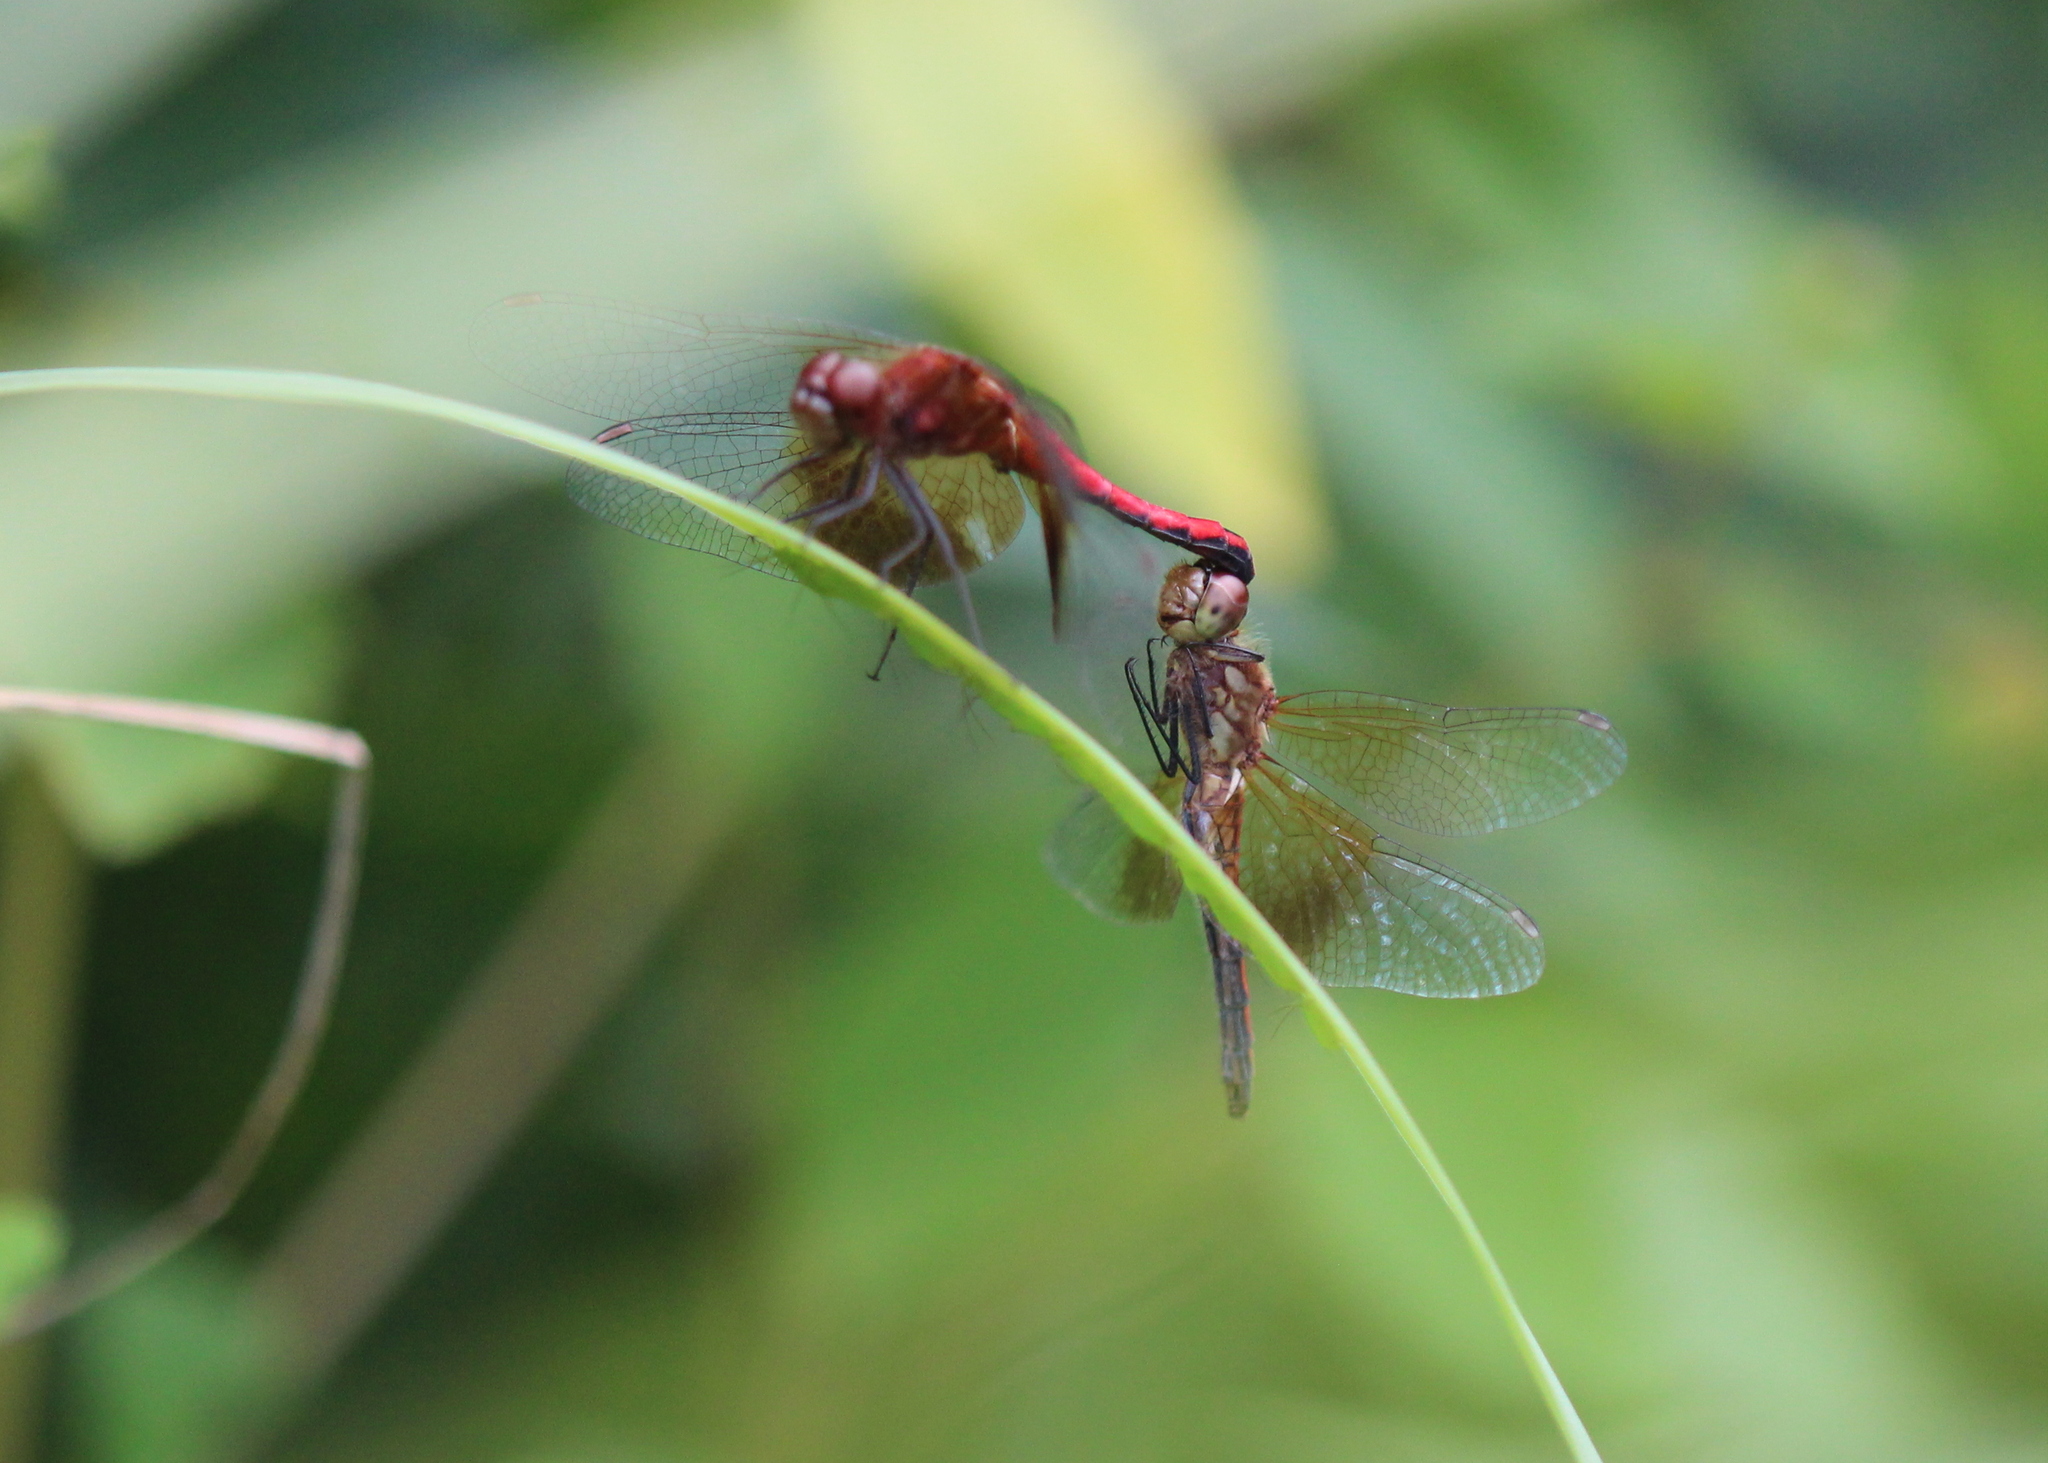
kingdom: Animalia
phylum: Arthropoda
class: Insecta
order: Odonata
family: Libellulidae
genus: Sympetrum
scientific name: Sympetrum semicinctum
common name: Band-winged meadowhawk
